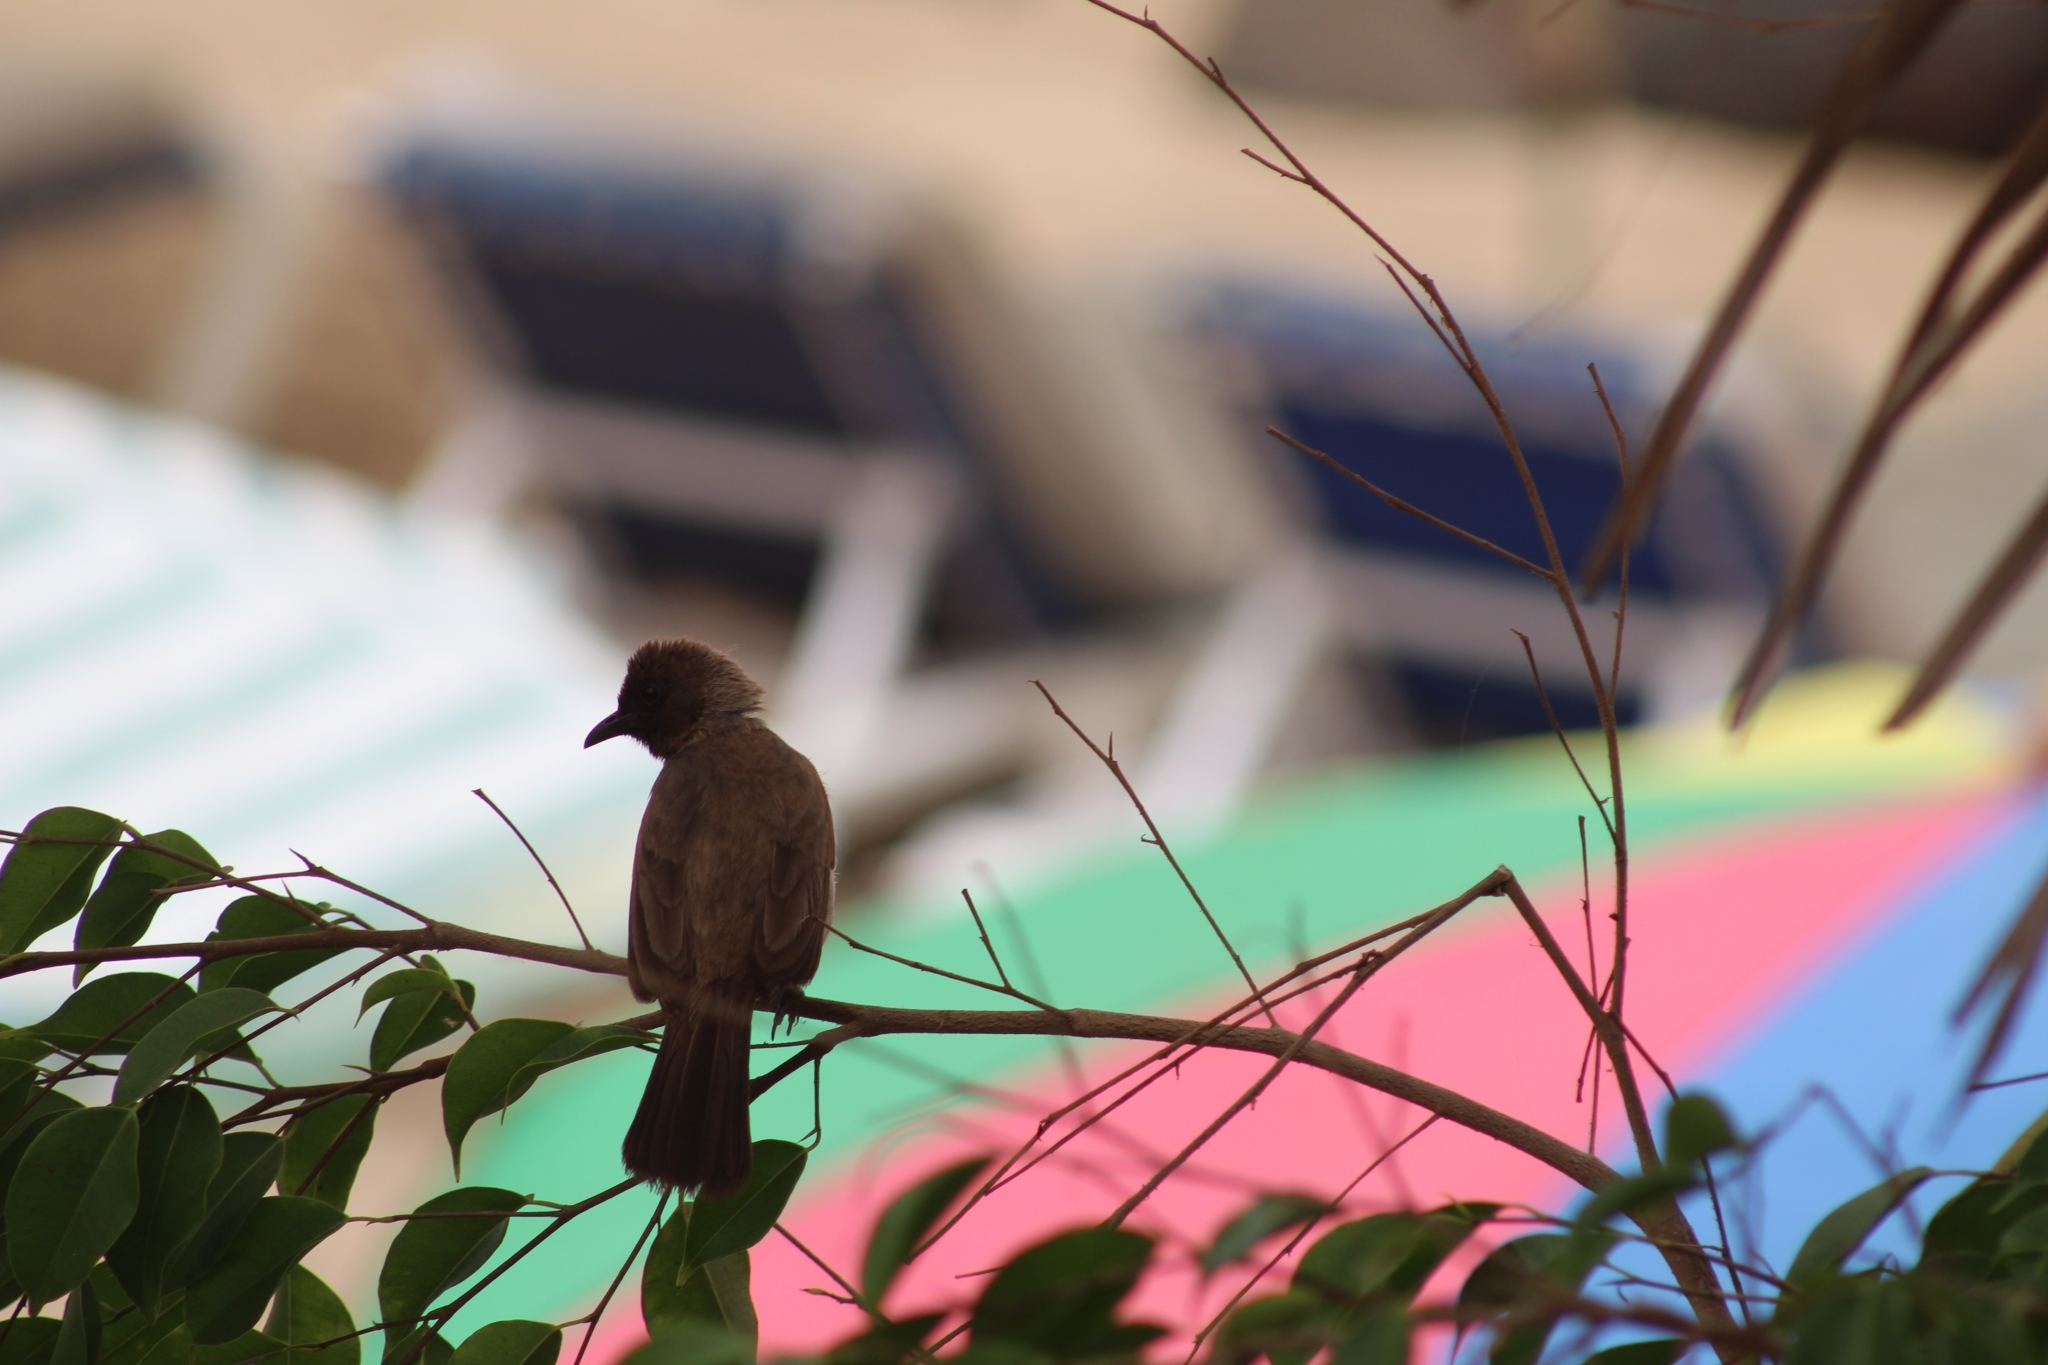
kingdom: Animalia
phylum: Chordata
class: Aves
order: Passeriformes
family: Pycnonotidae
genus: Pycnonotus
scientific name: Pycnonotus barbatus
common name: Common bulbul
